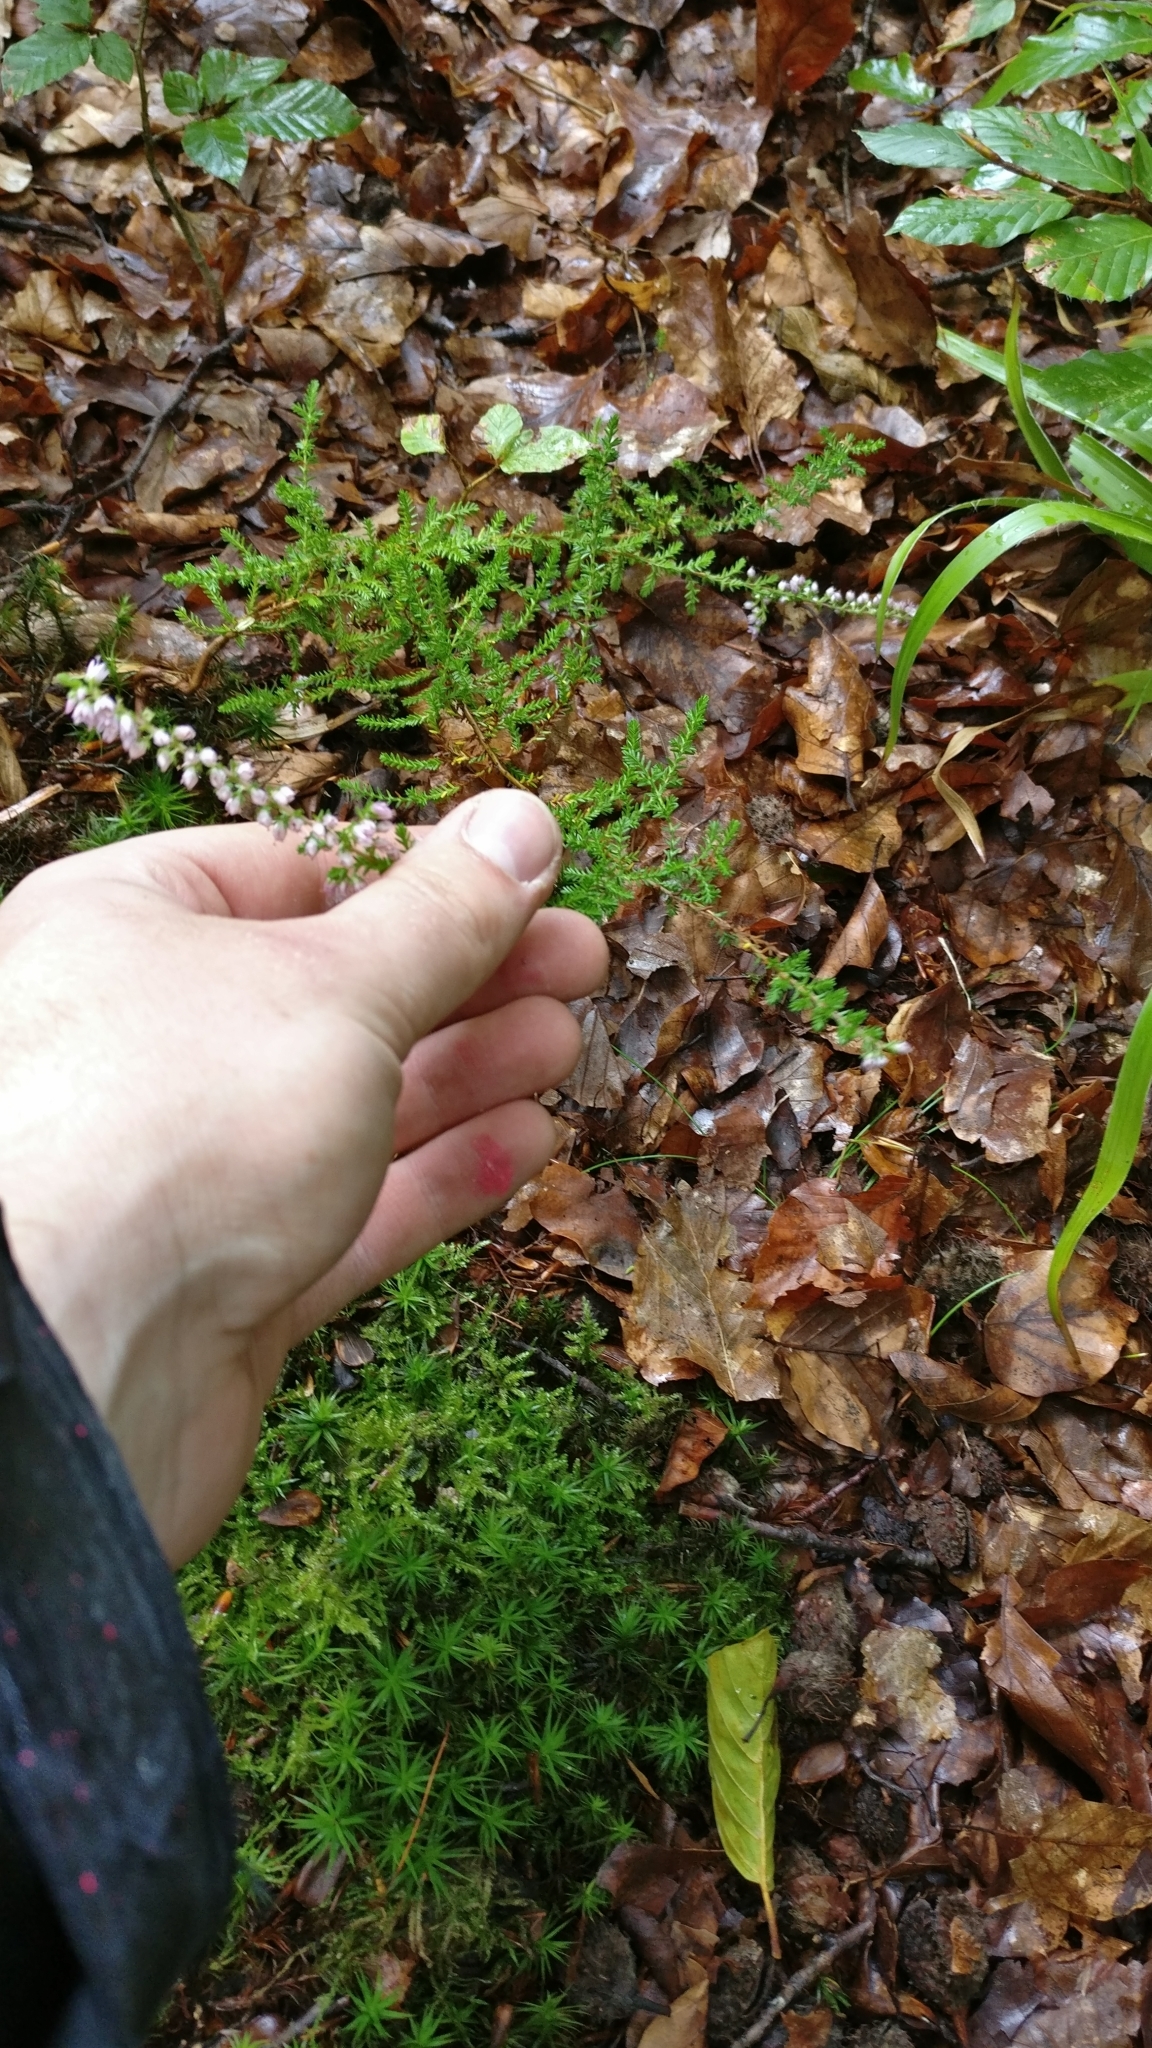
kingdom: Plantae
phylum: Tracheophyta
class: Magnoliopsida
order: Ericales
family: Ericaceae
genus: Calluna
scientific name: Calluna vulgaris
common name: Heather
